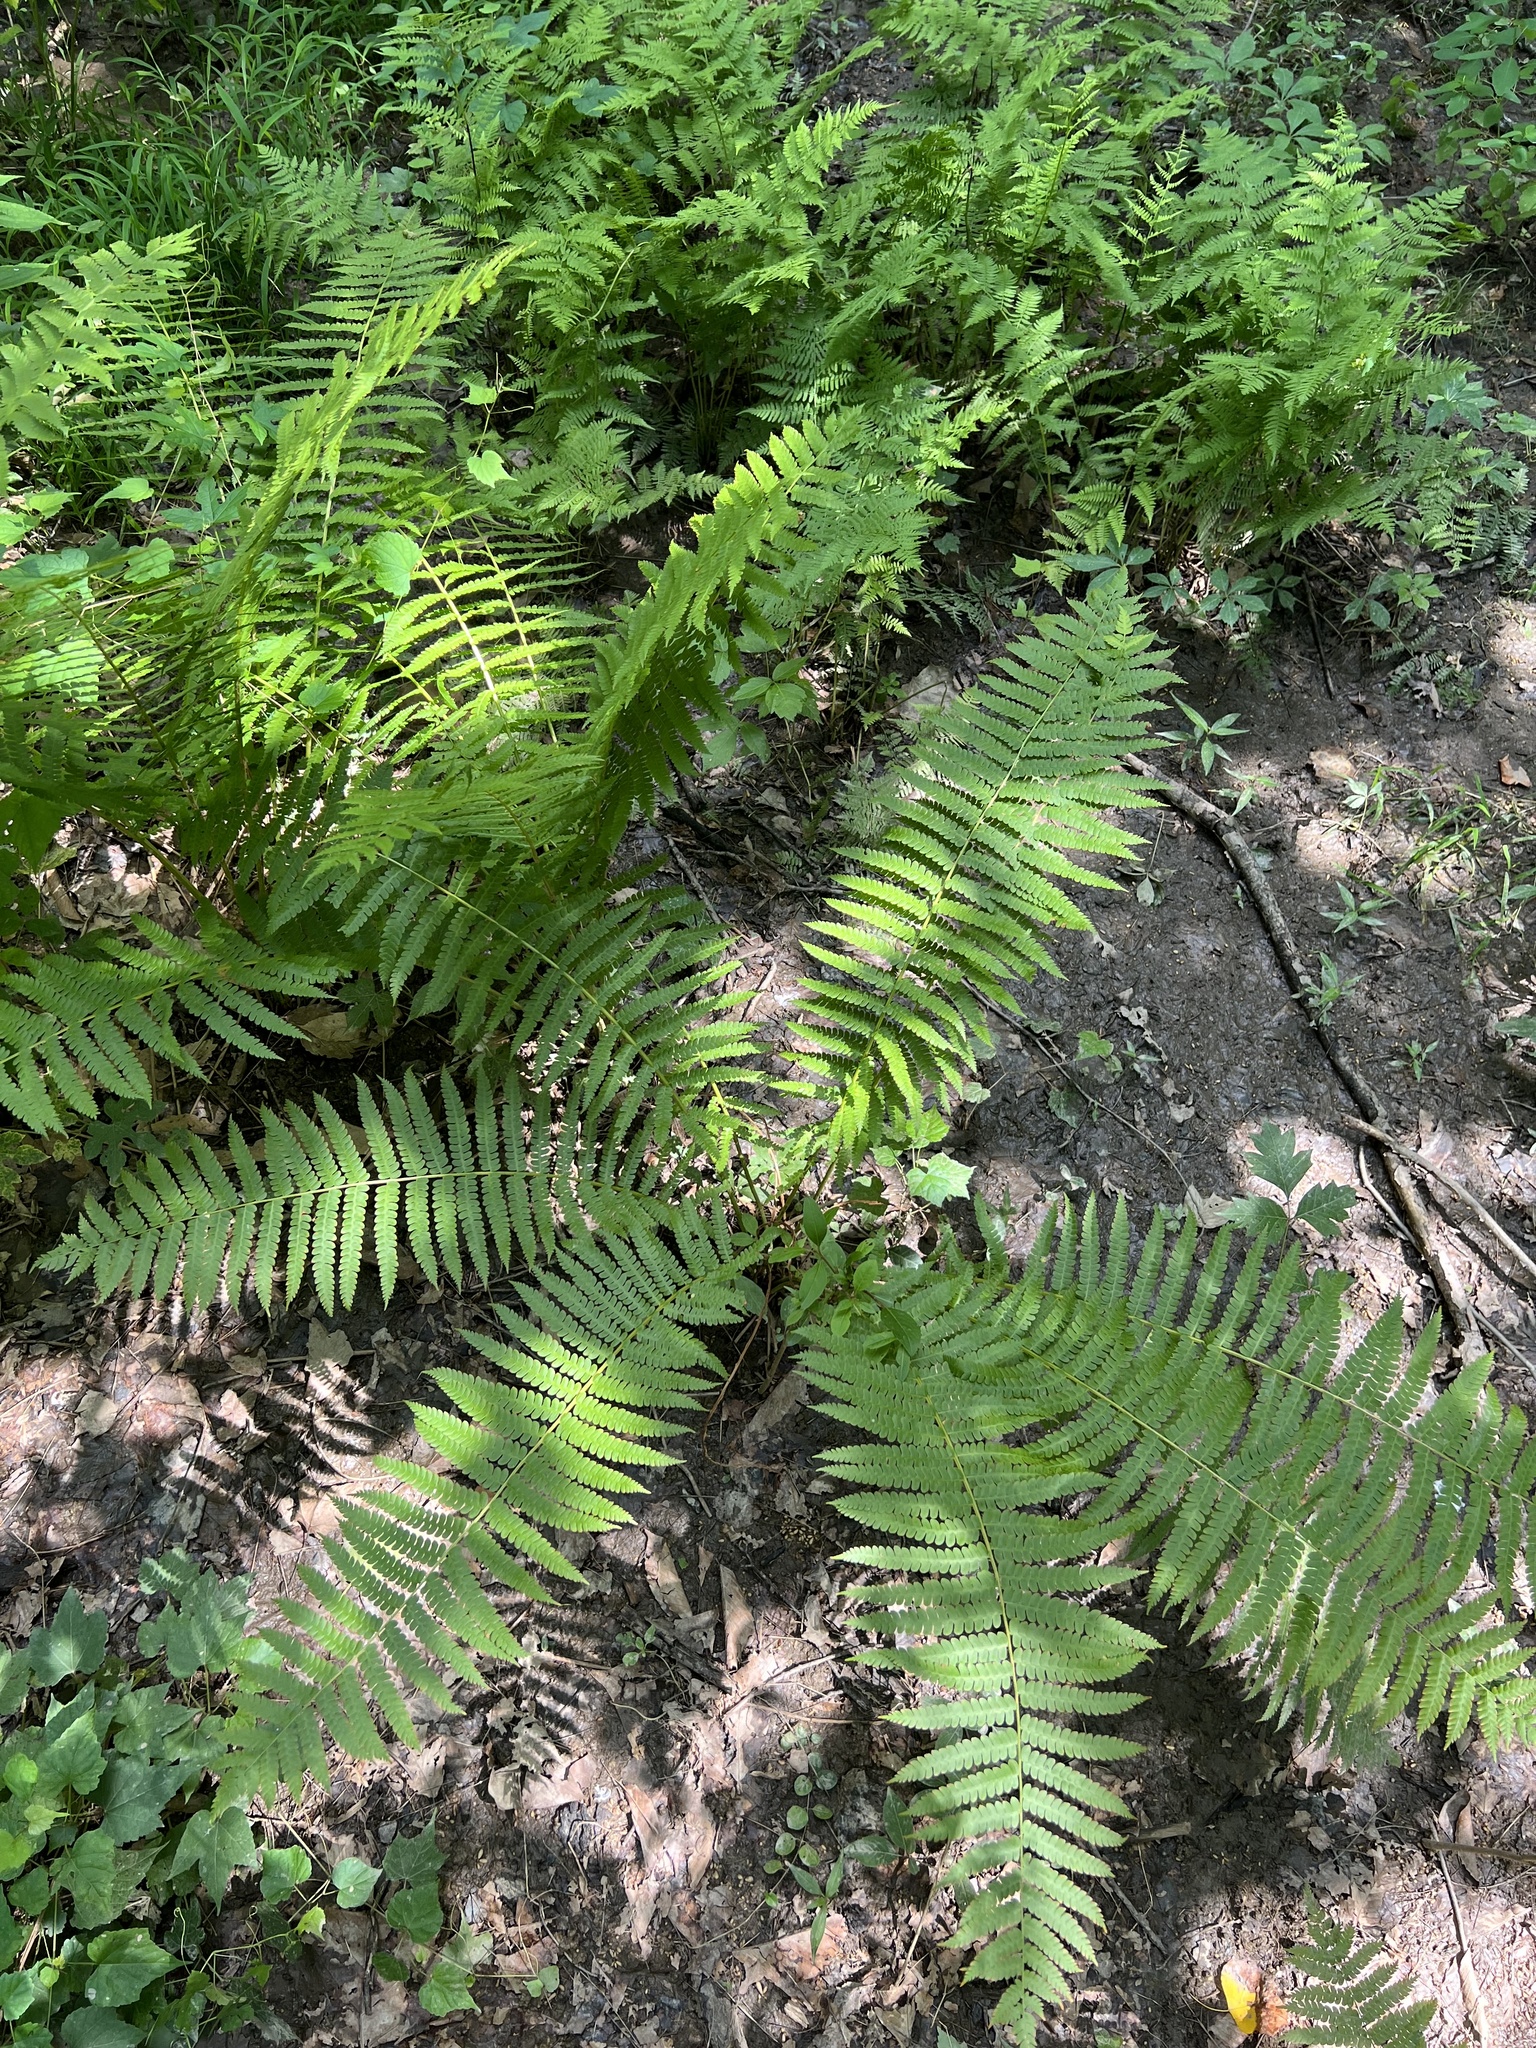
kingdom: Plantae
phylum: Tracheophyta
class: Polypodiopsida
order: Osmundales
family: Osmundaceae
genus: Osmundastrum
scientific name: Osmundastrum cinnamomeum
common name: Cinnamon fern
